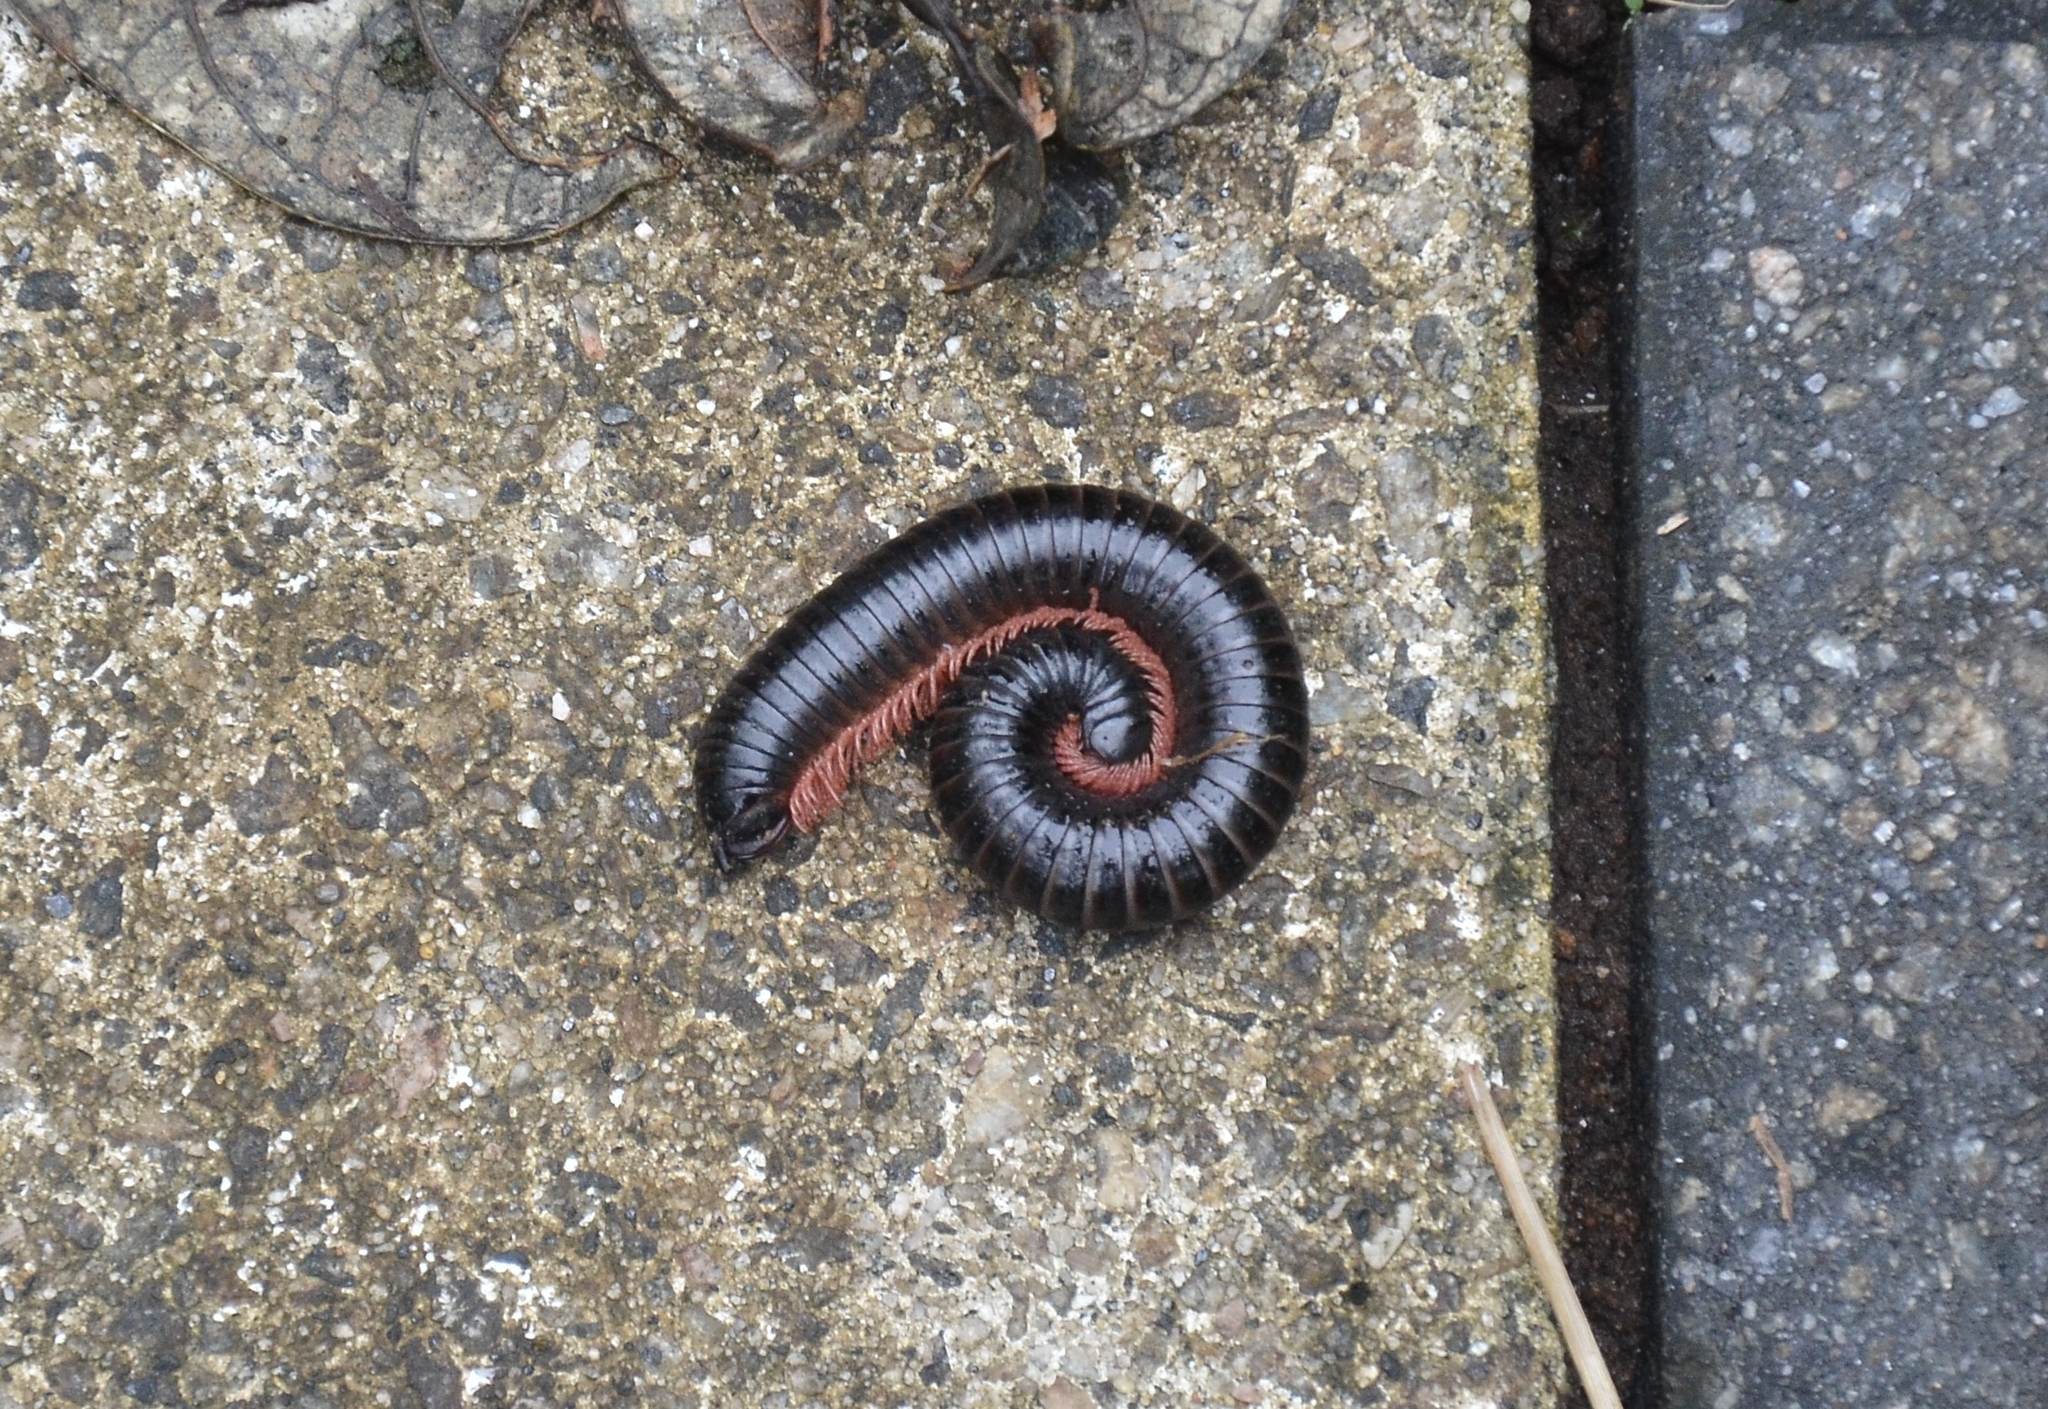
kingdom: Animalia
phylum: Arthropoda
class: Diplopoda
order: Spirostreptida
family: Harpagophoridae
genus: Phyllogonostreptus
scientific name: Phyllogonostreptus nigrolabiatus
